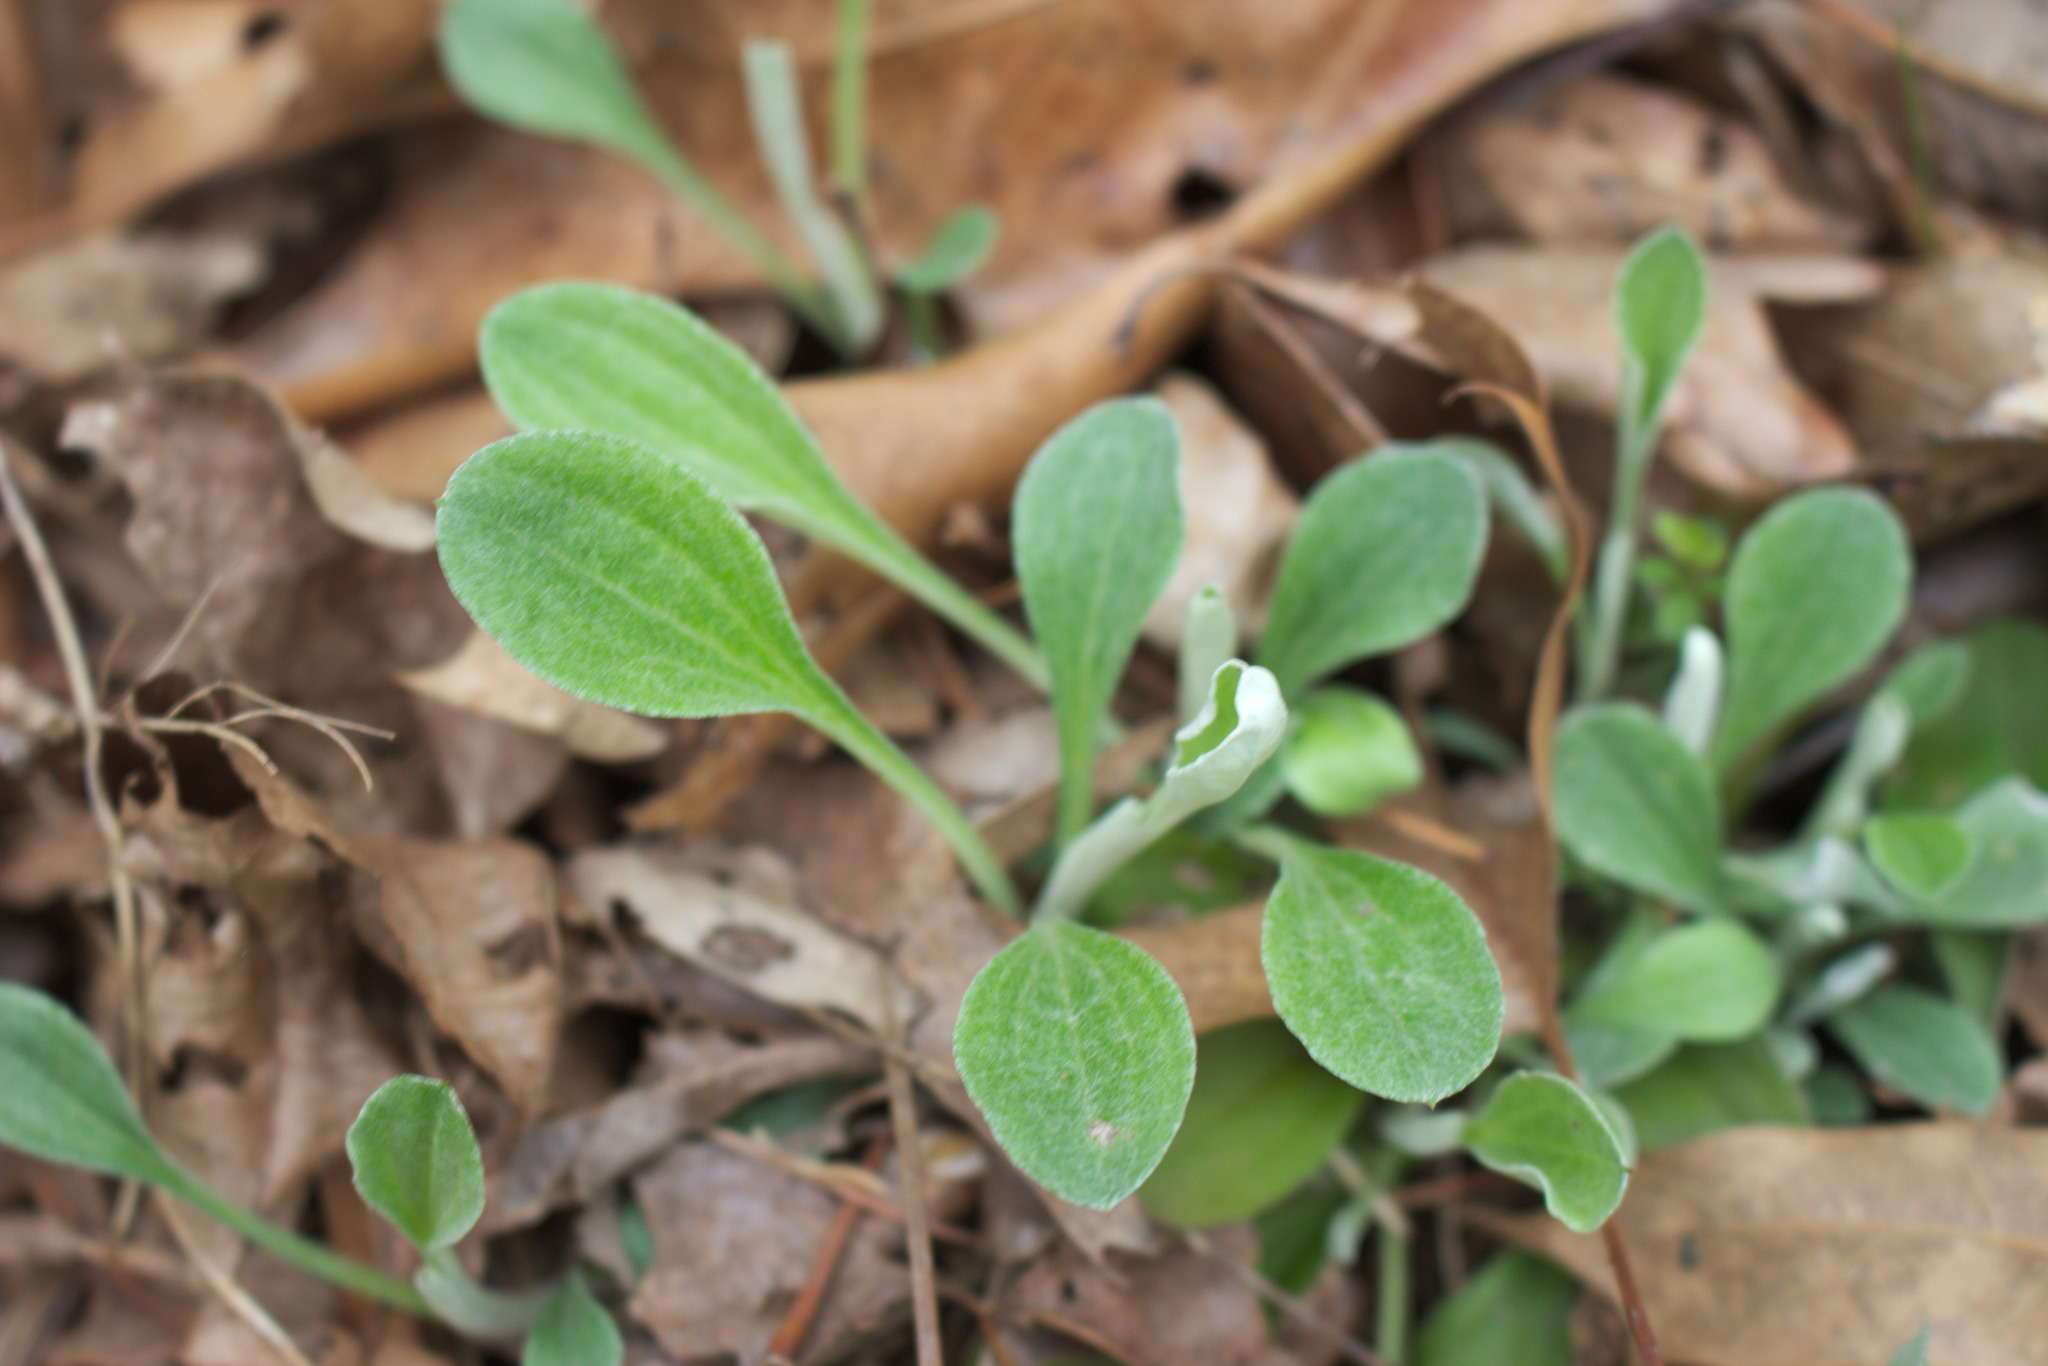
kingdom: Plantae
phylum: Tracheophyta
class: Magnoliopsida
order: Asterales
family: Asteraceae
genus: Antennaria
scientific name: Antennaria plantaginifolia
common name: Plantain-leaved pussytoes
